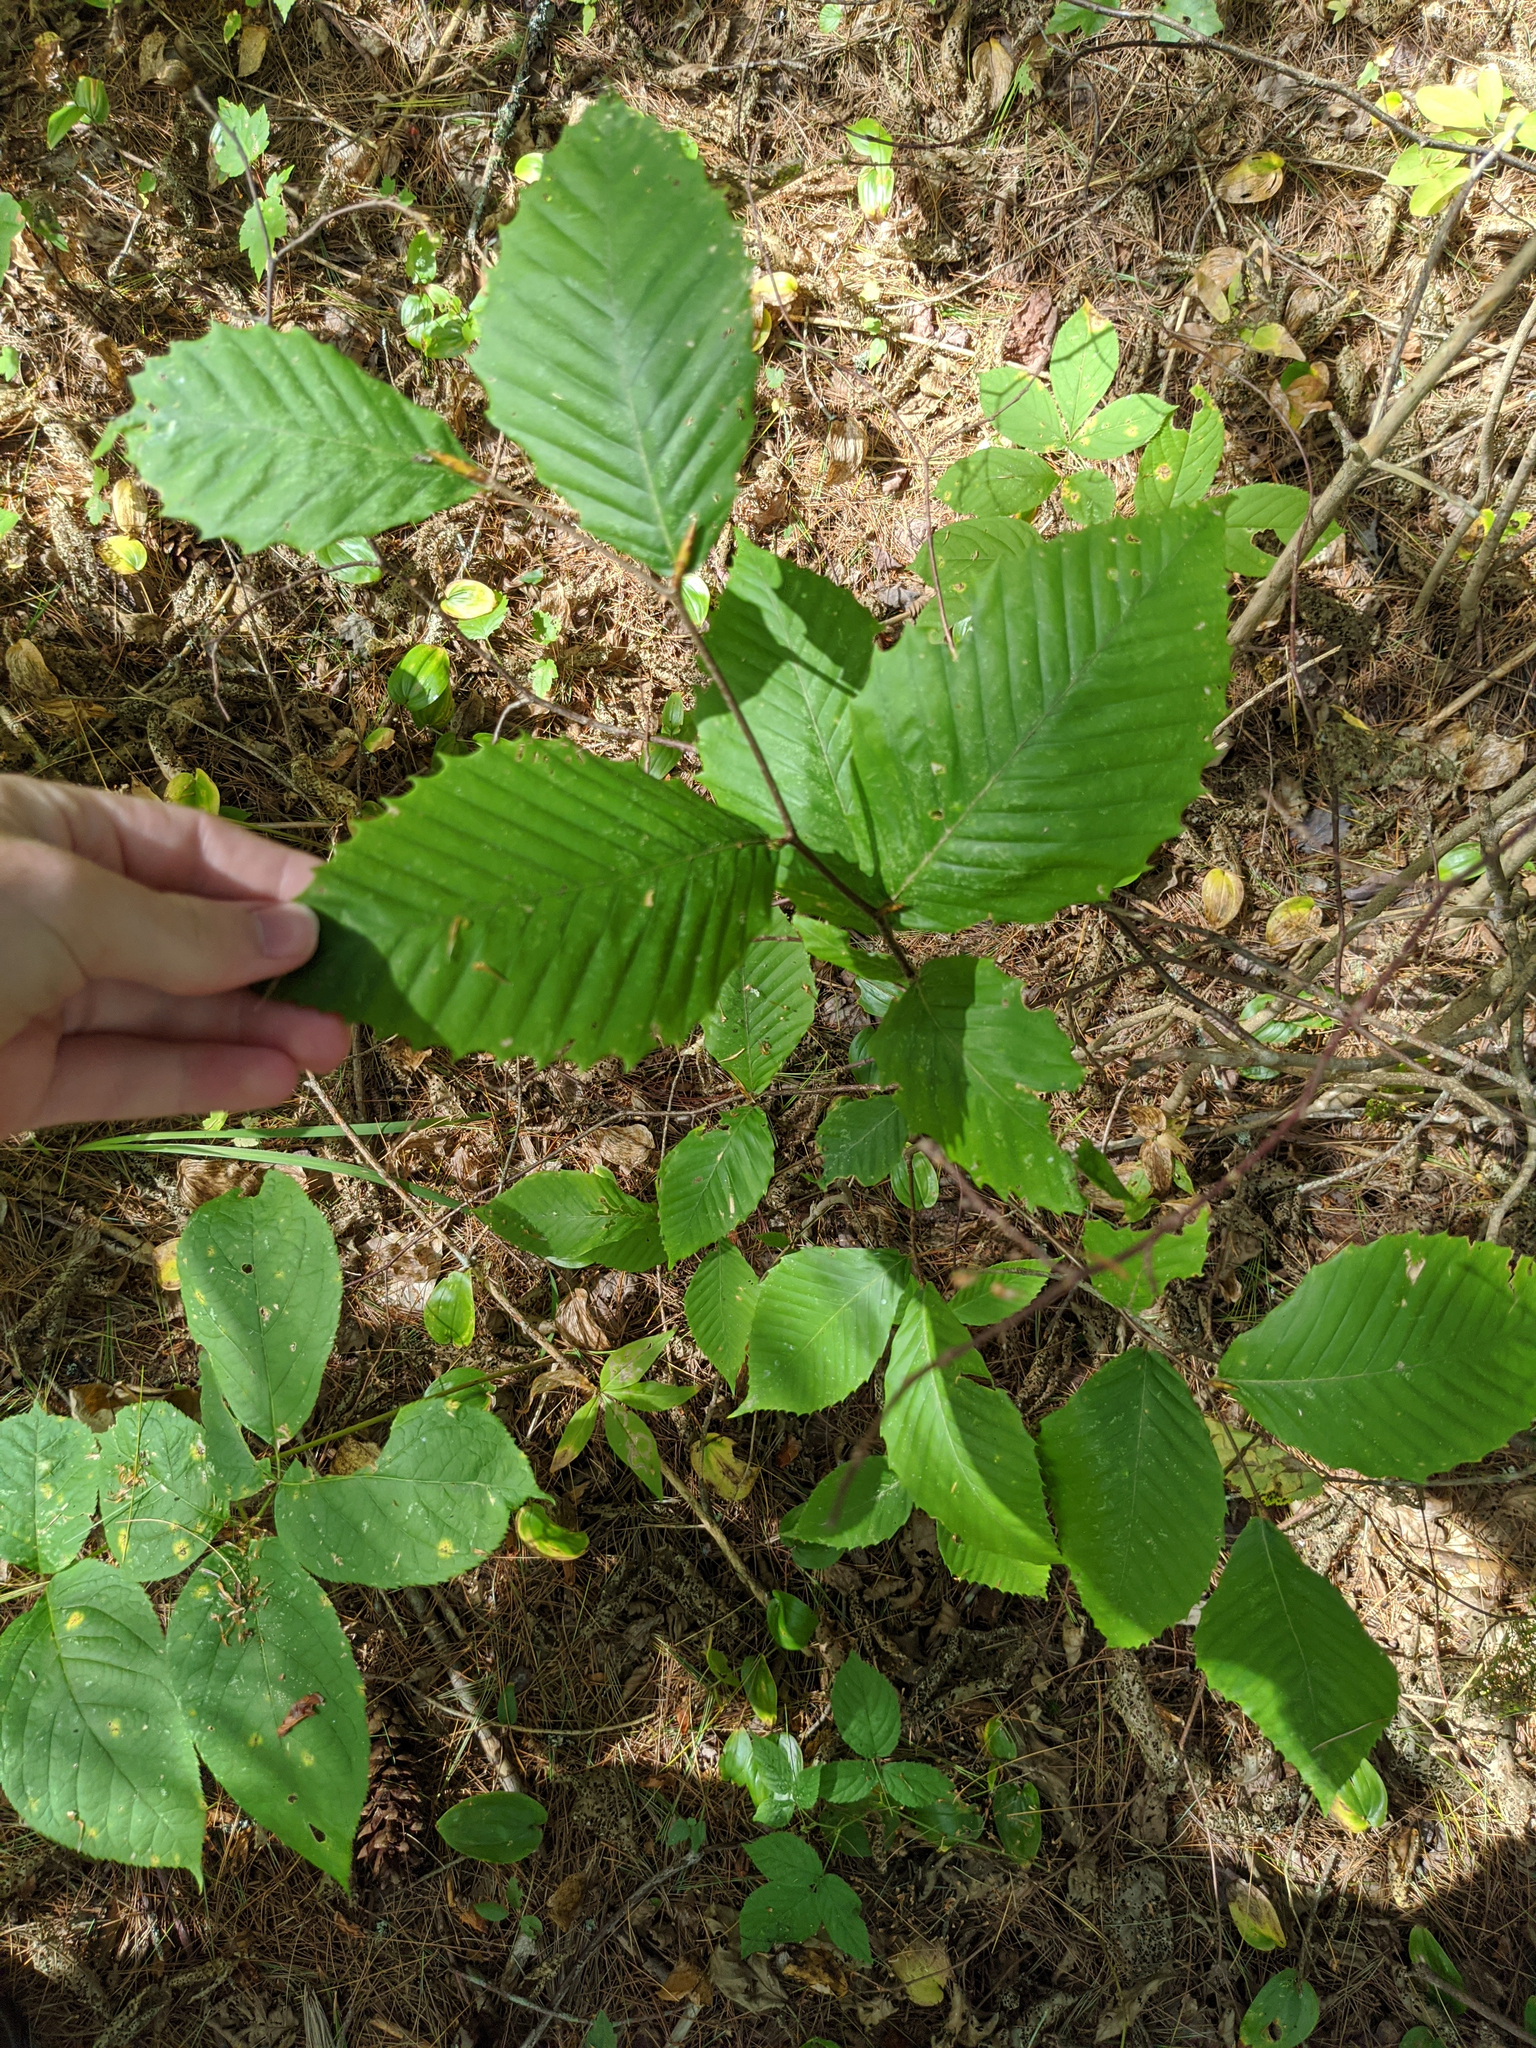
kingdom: Plantae
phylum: Tracheophyta
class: Magnoliopsida
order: Fagales
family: Fagaceae
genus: Fagus
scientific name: Fagus grandifolia
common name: American beech
